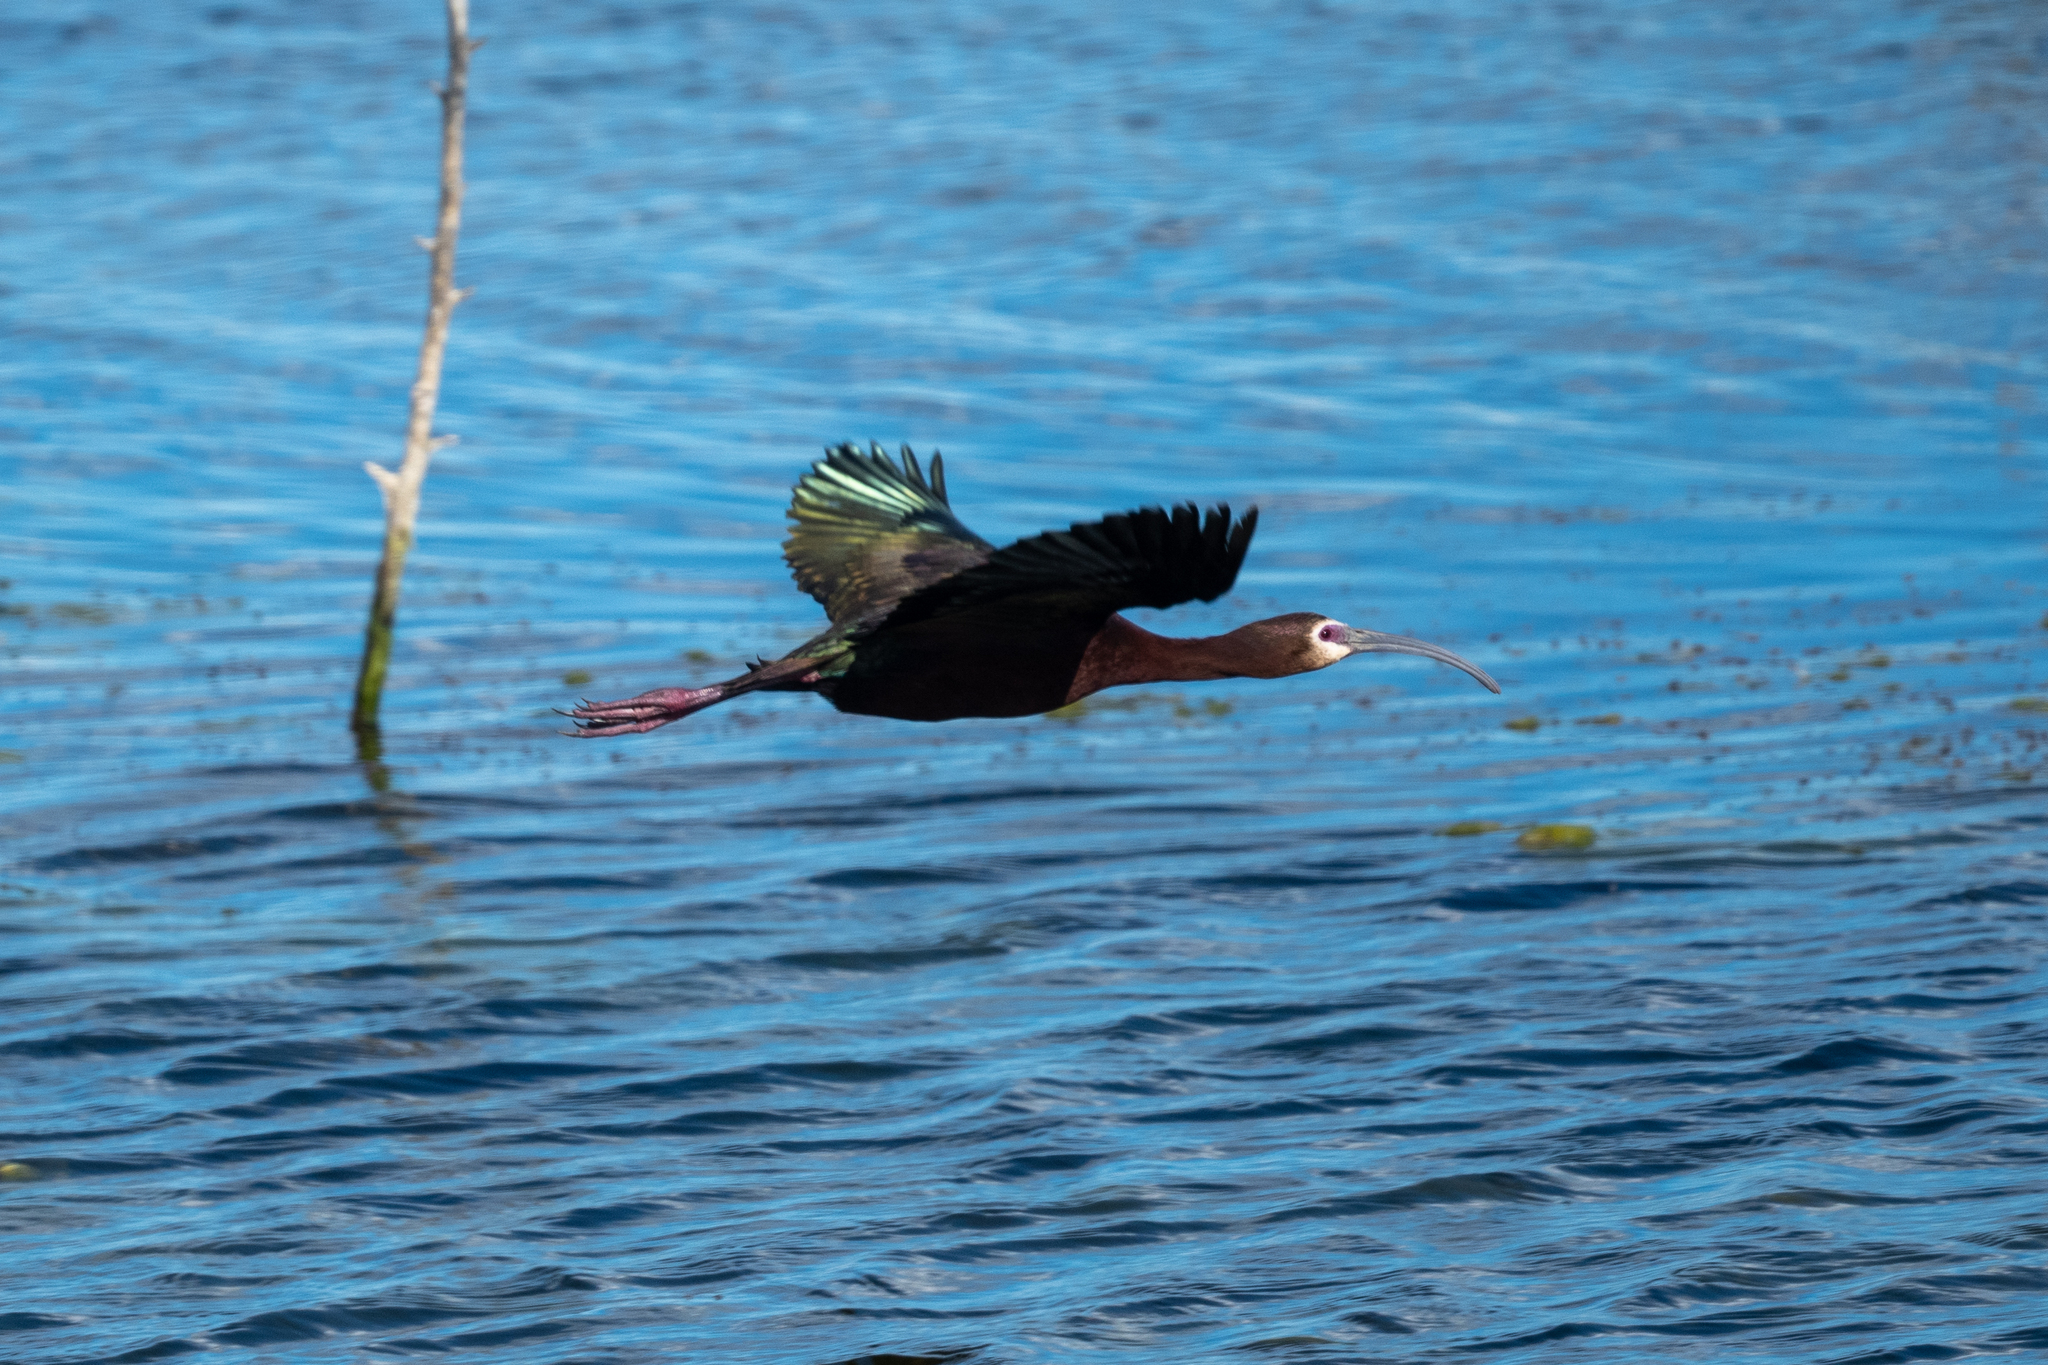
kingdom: Animalia
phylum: Chordata
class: Aves
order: Pelecaniformes
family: Threskiornithidae
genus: Plegadis
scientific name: Plegadis chihi
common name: White-faced ibis
